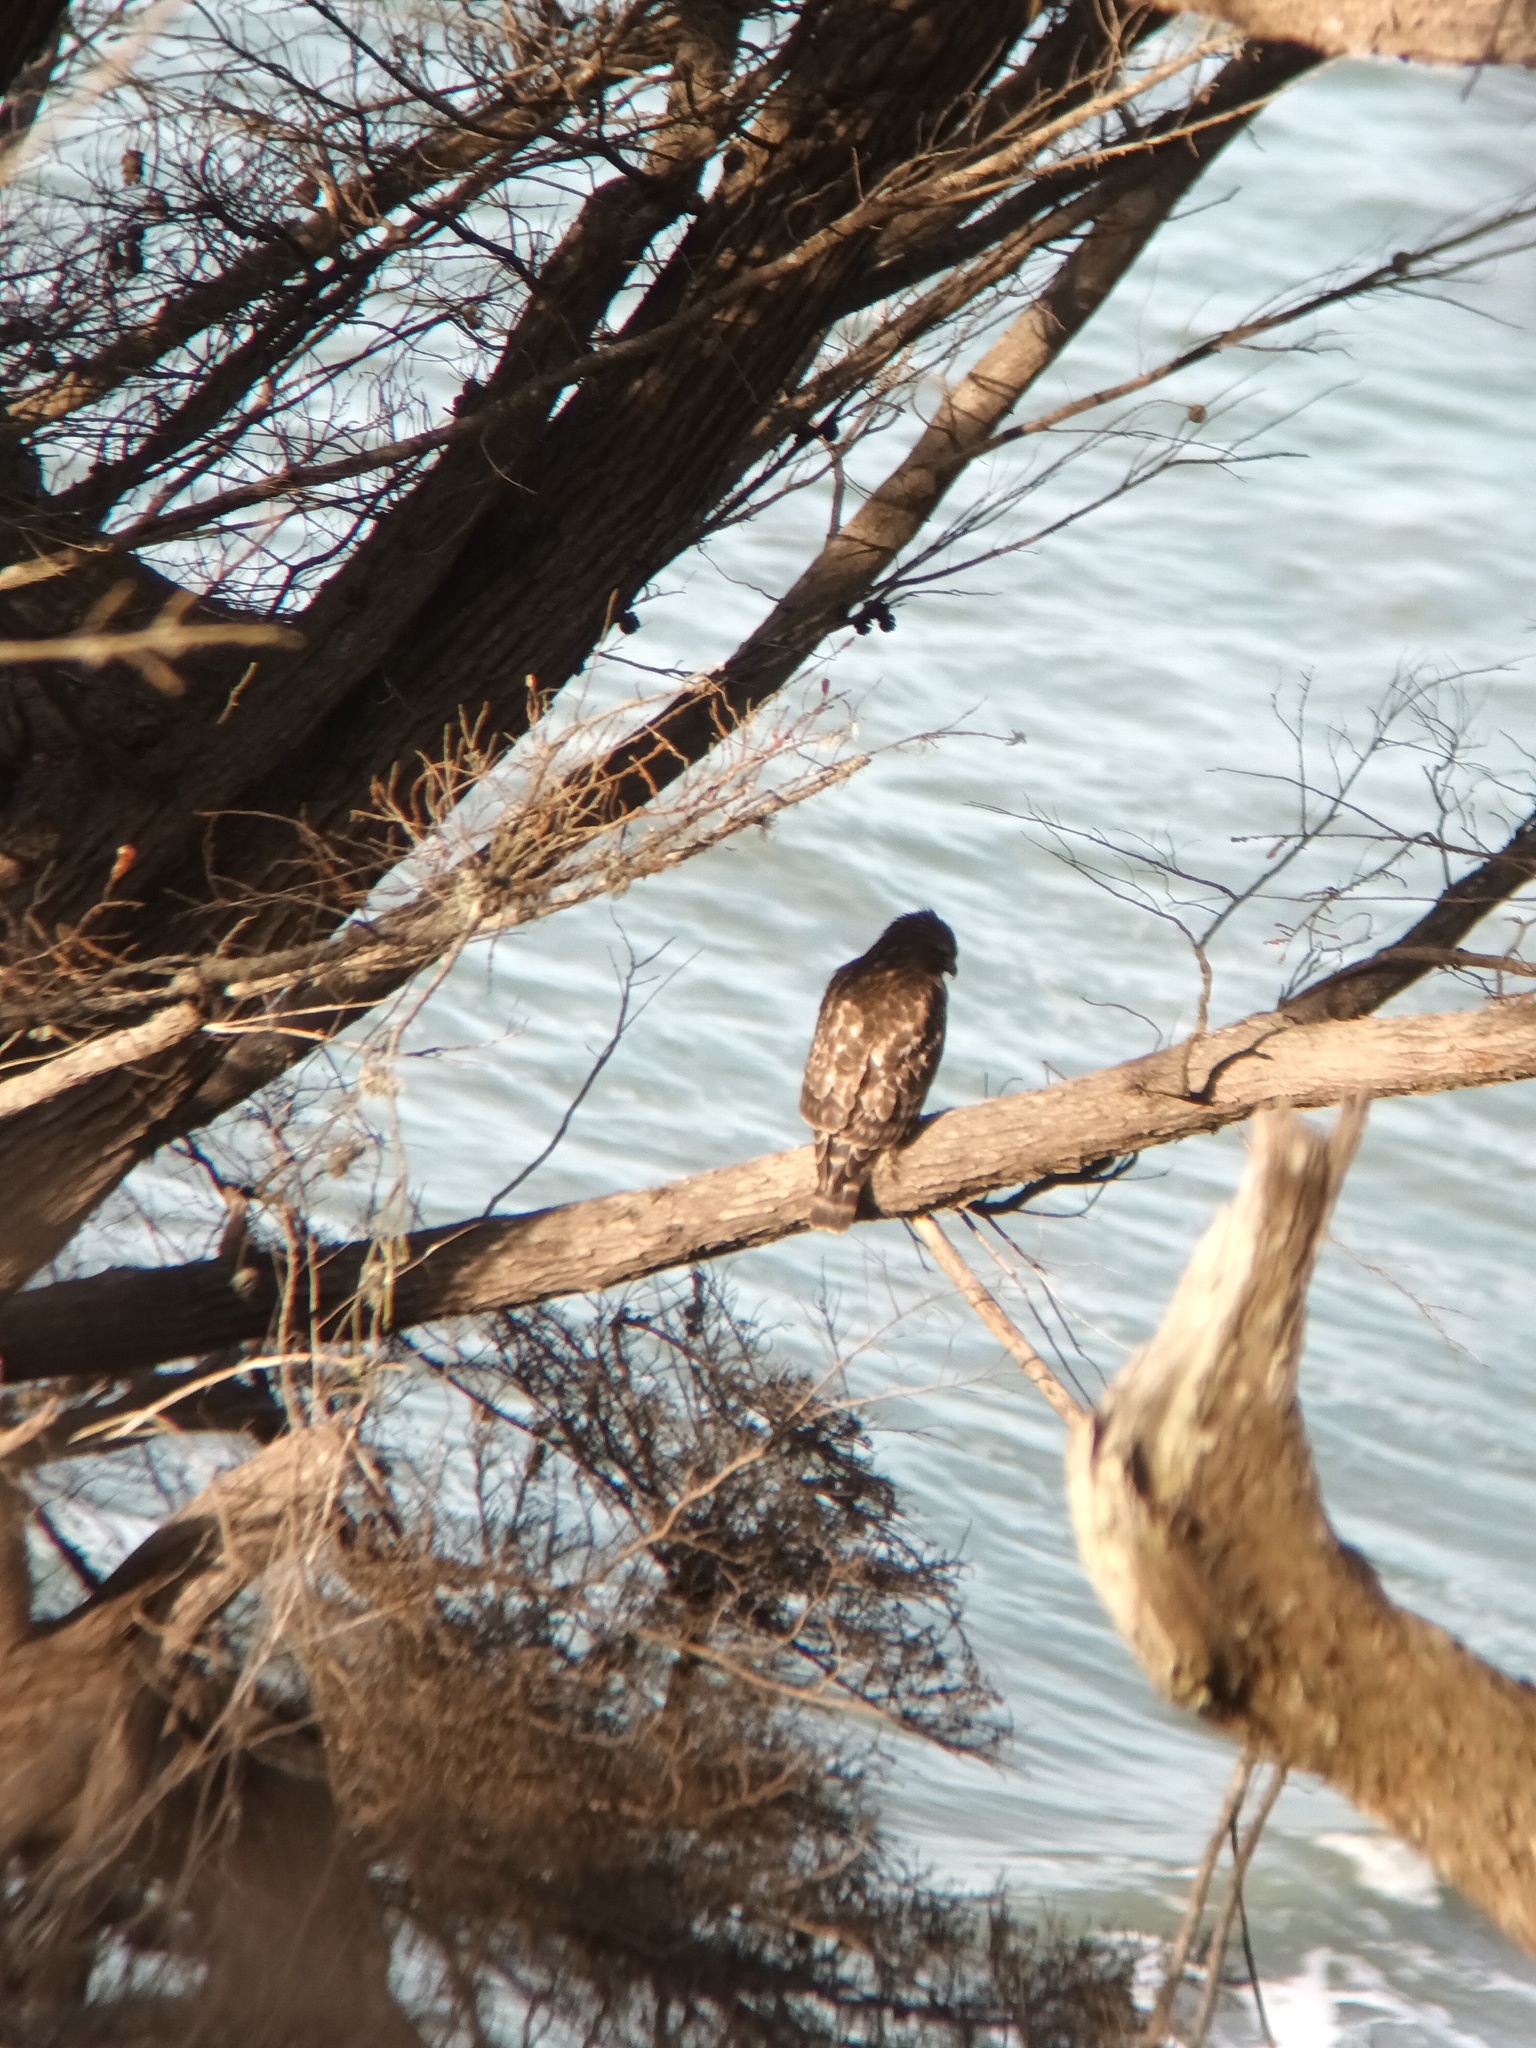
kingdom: Animalia
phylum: Chordata
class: Aves
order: Accipitriformes
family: Accipitridae
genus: Buteo
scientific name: Buteo lineatus
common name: Red-shouldered hawk
